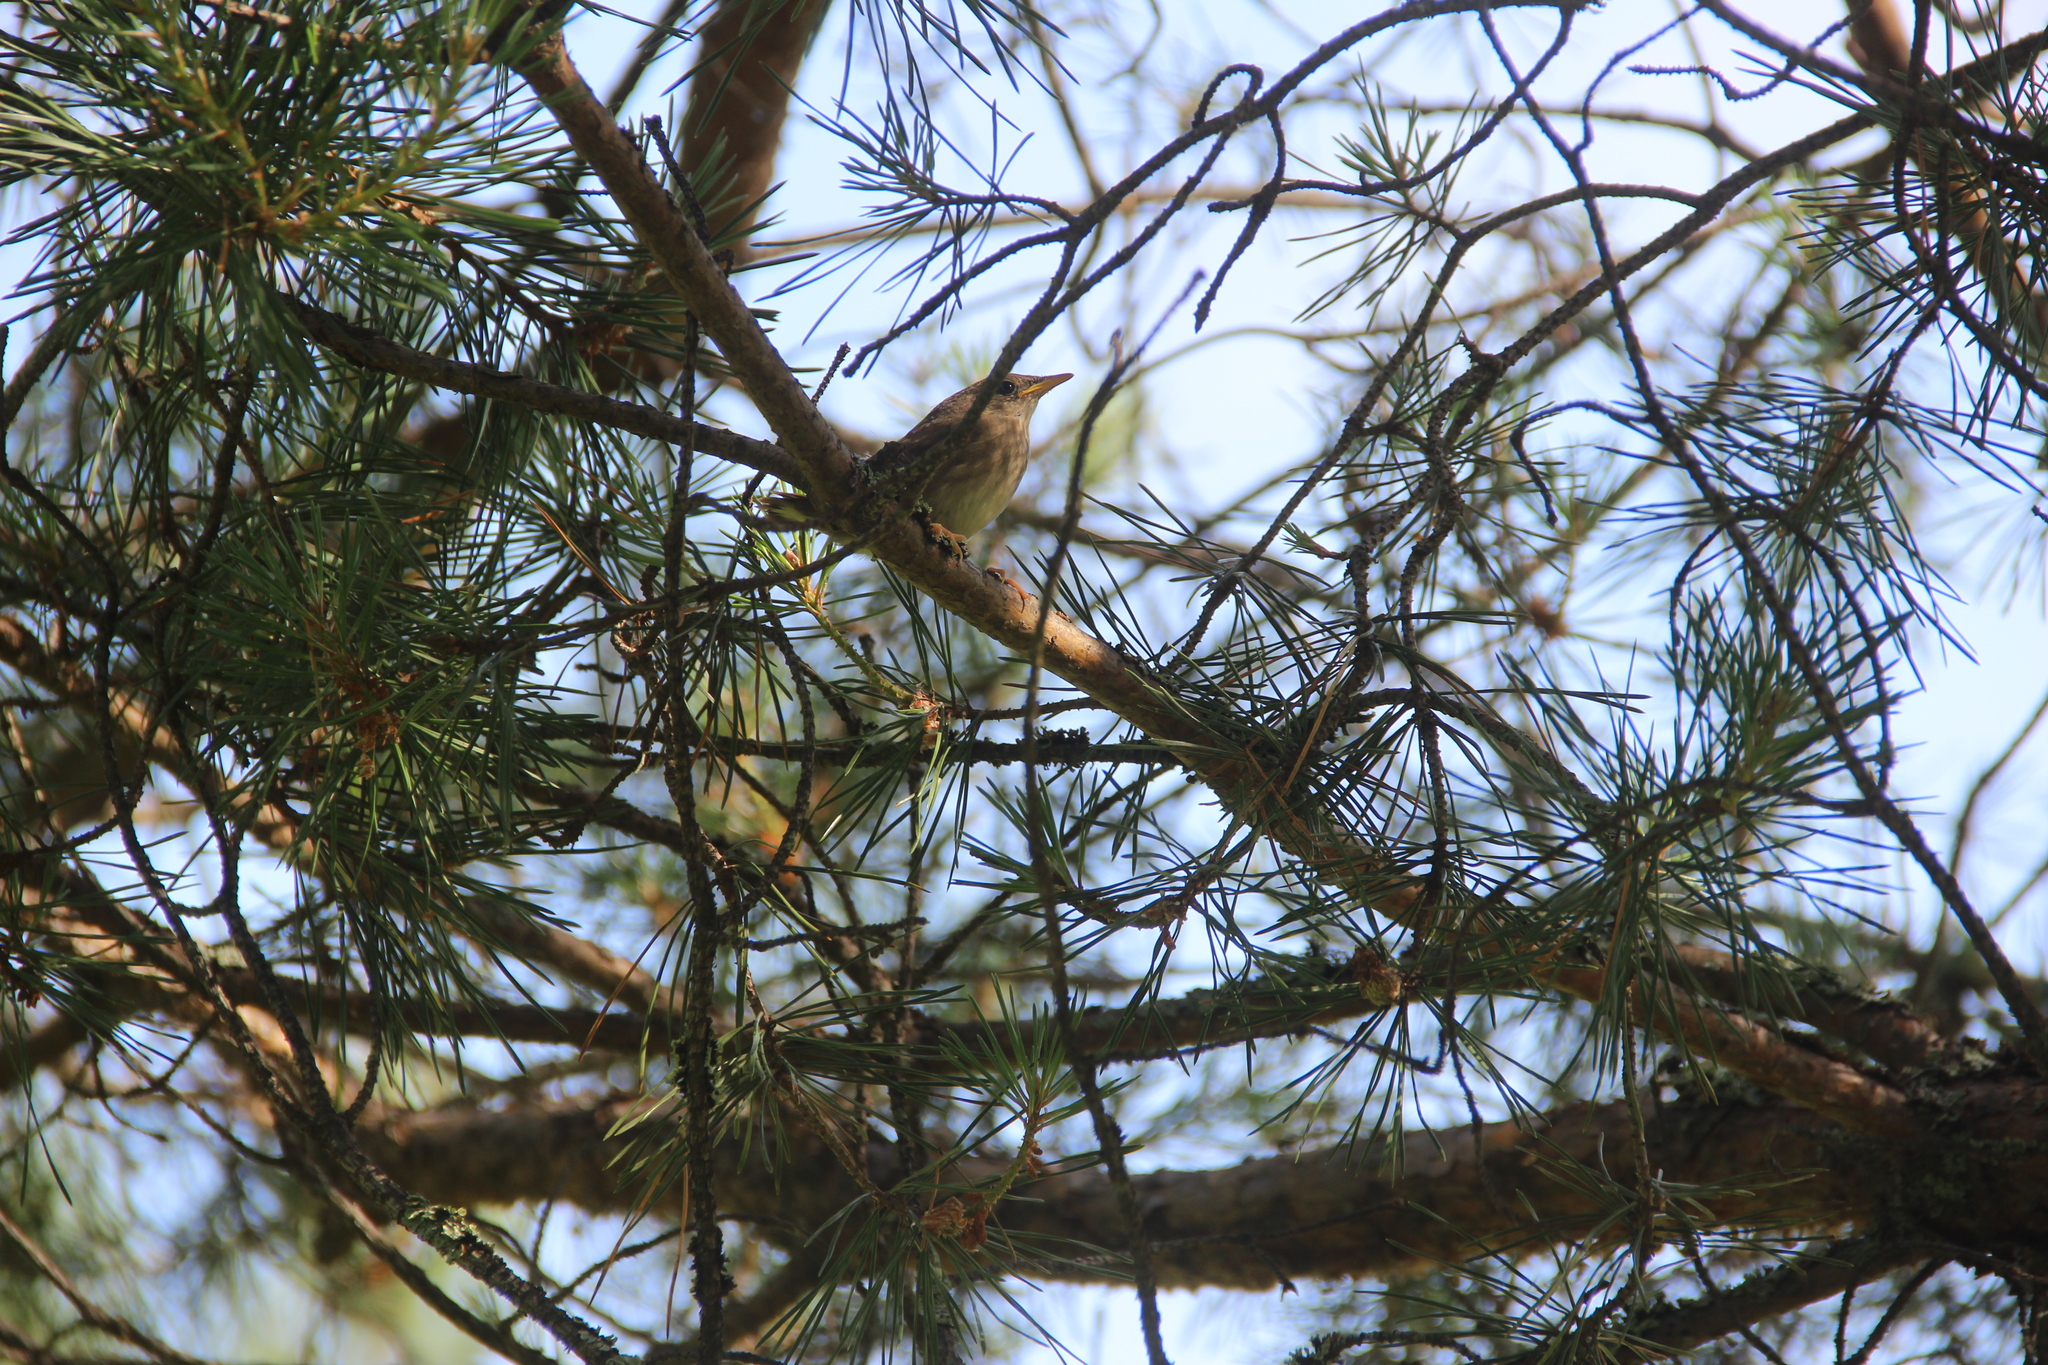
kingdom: Animalia
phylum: Chordata
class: Aves
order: Passeriformes
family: Locustellidae
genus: Locustella
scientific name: Locustella fluviatilis
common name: River warbler
